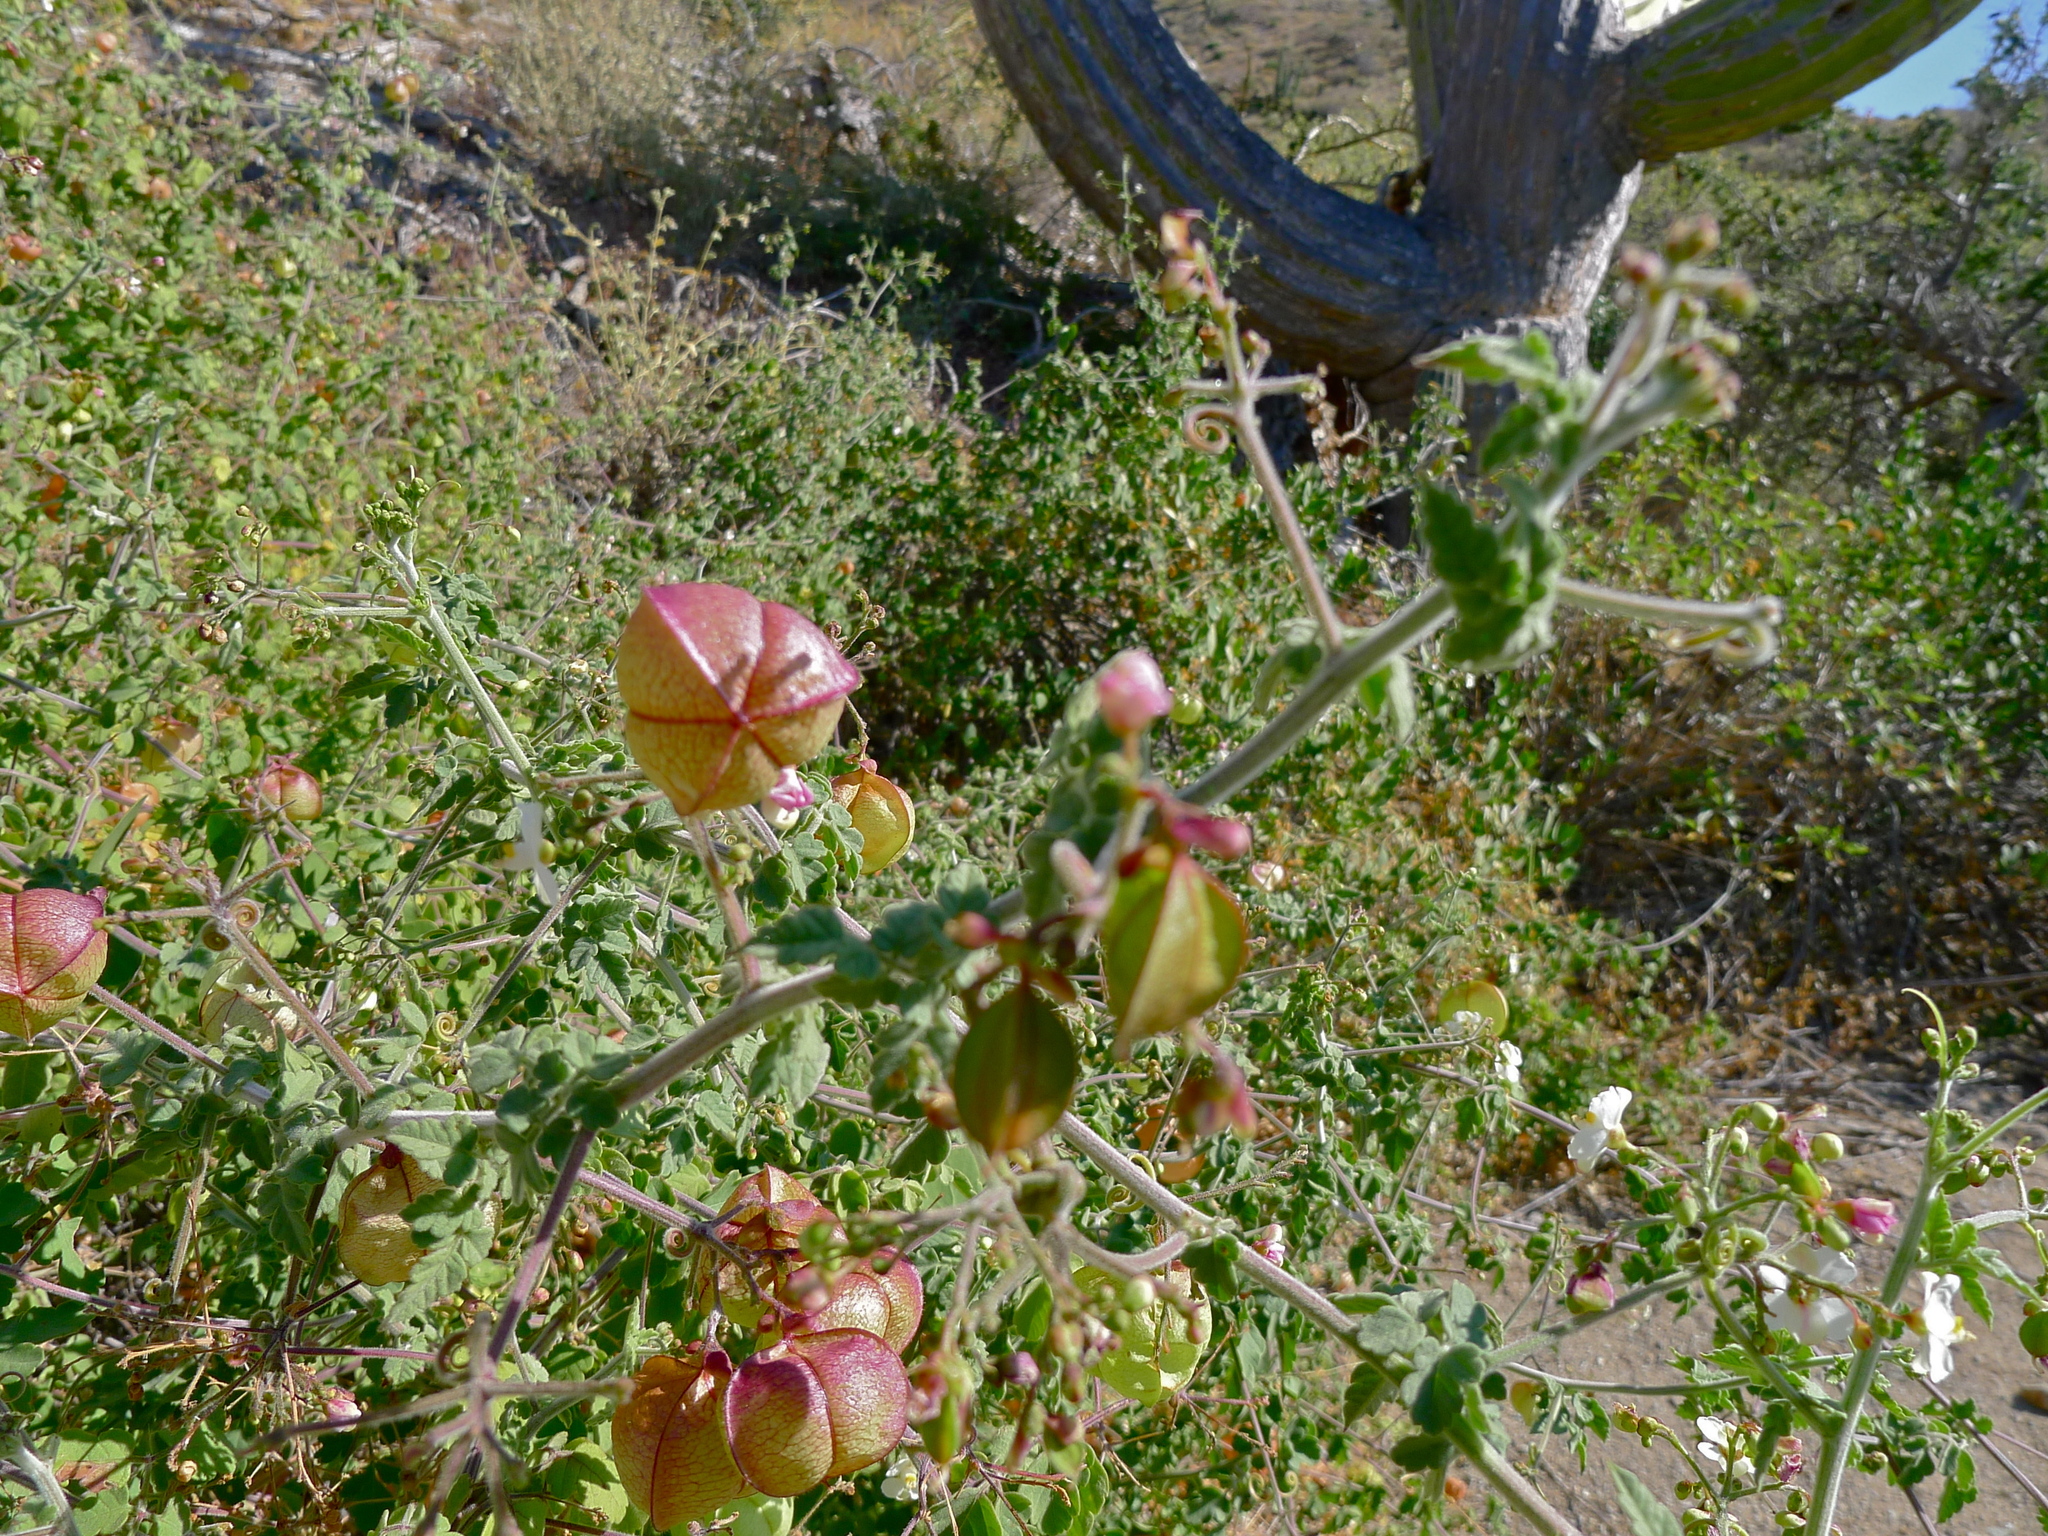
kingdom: Plantae
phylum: Tracheophyta
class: Magnoliopsida
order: Sapindales
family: Sapindaceae
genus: Cardiospermum
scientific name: Cardiospermum corindum
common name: Faux persil
